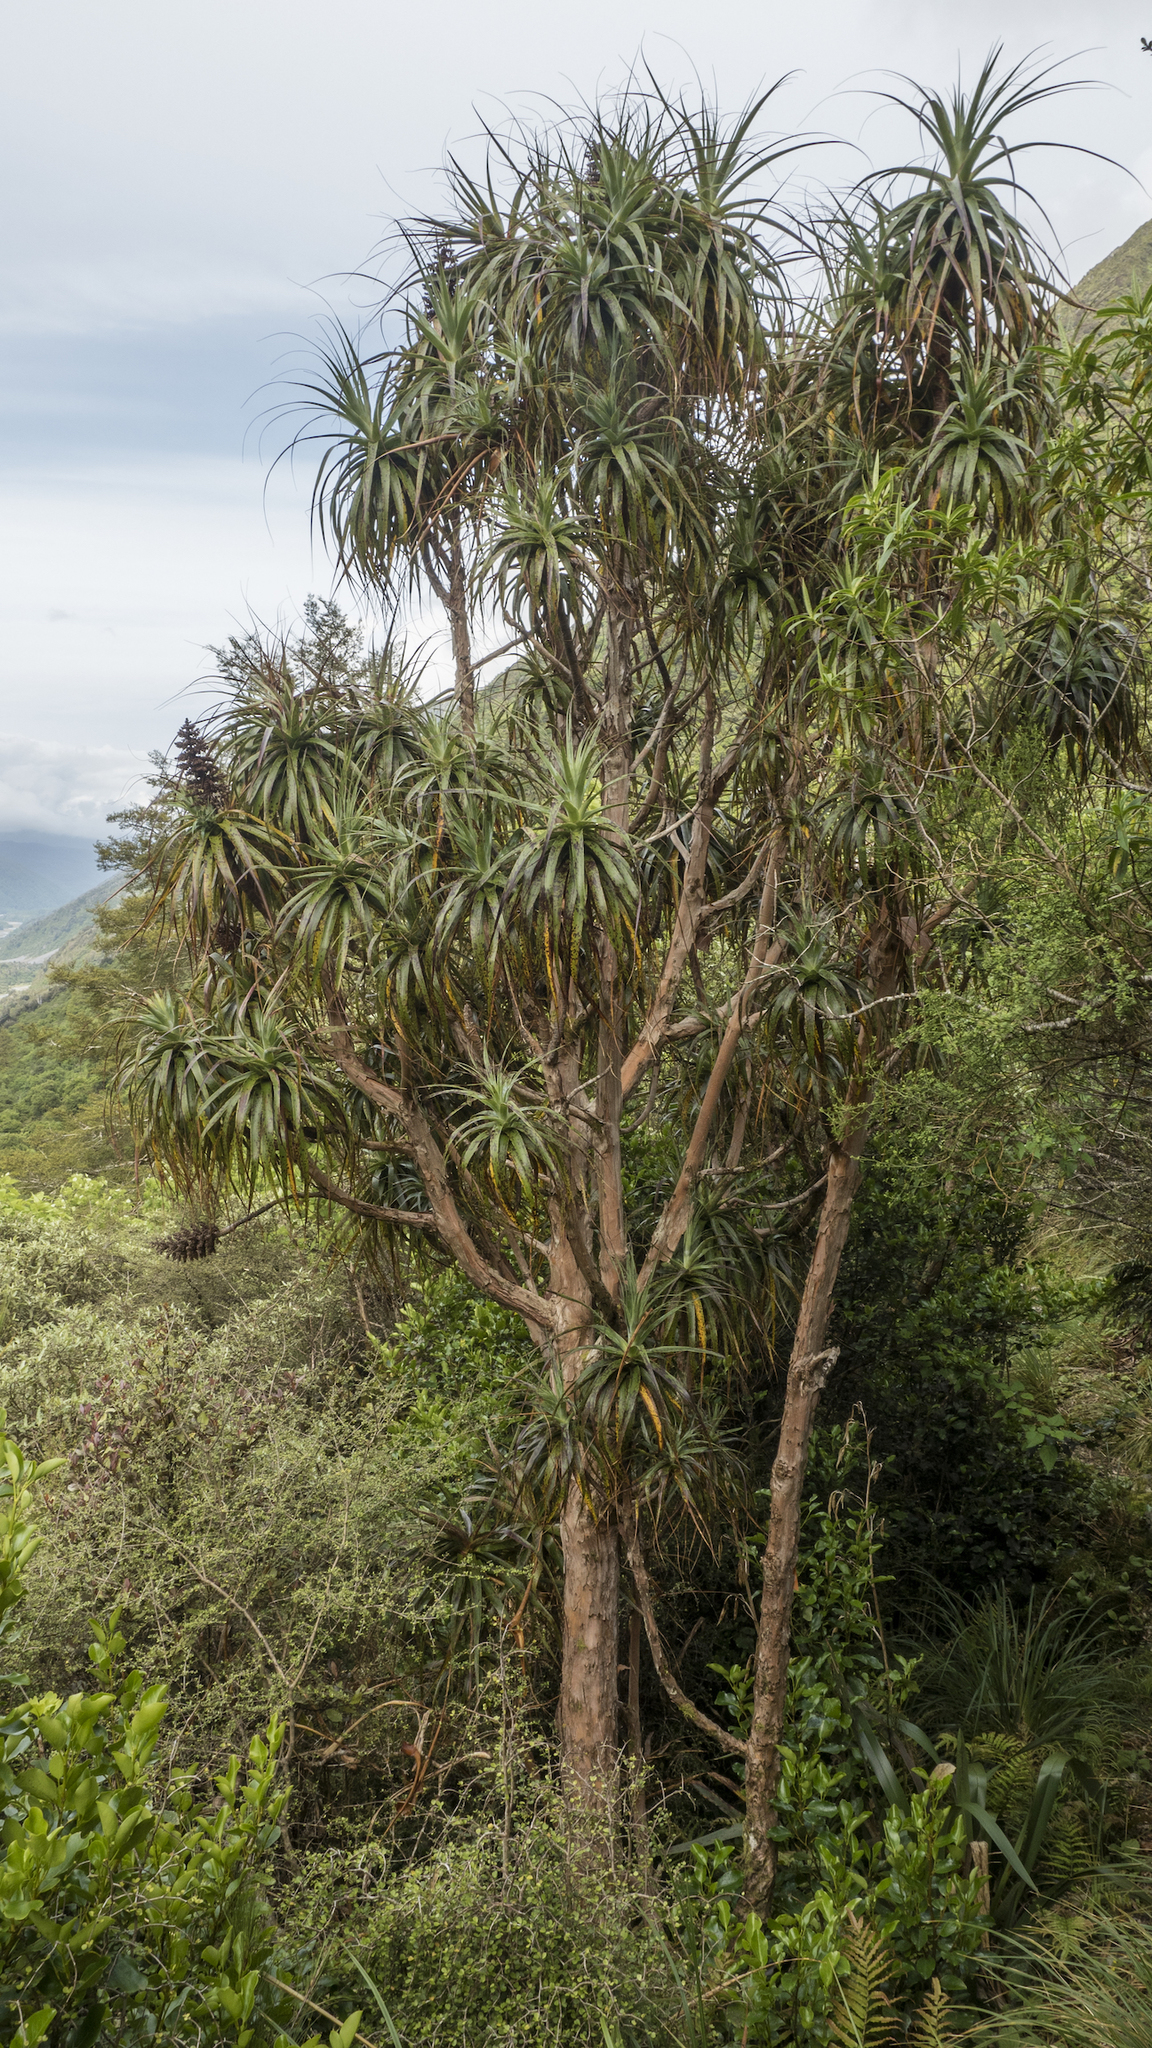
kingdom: Plantae
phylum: Tracheophyta
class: Magnoliopsida
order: Ericales
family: Ericaceae
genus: Dracophyllum
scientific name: Dracophyllum traversii
